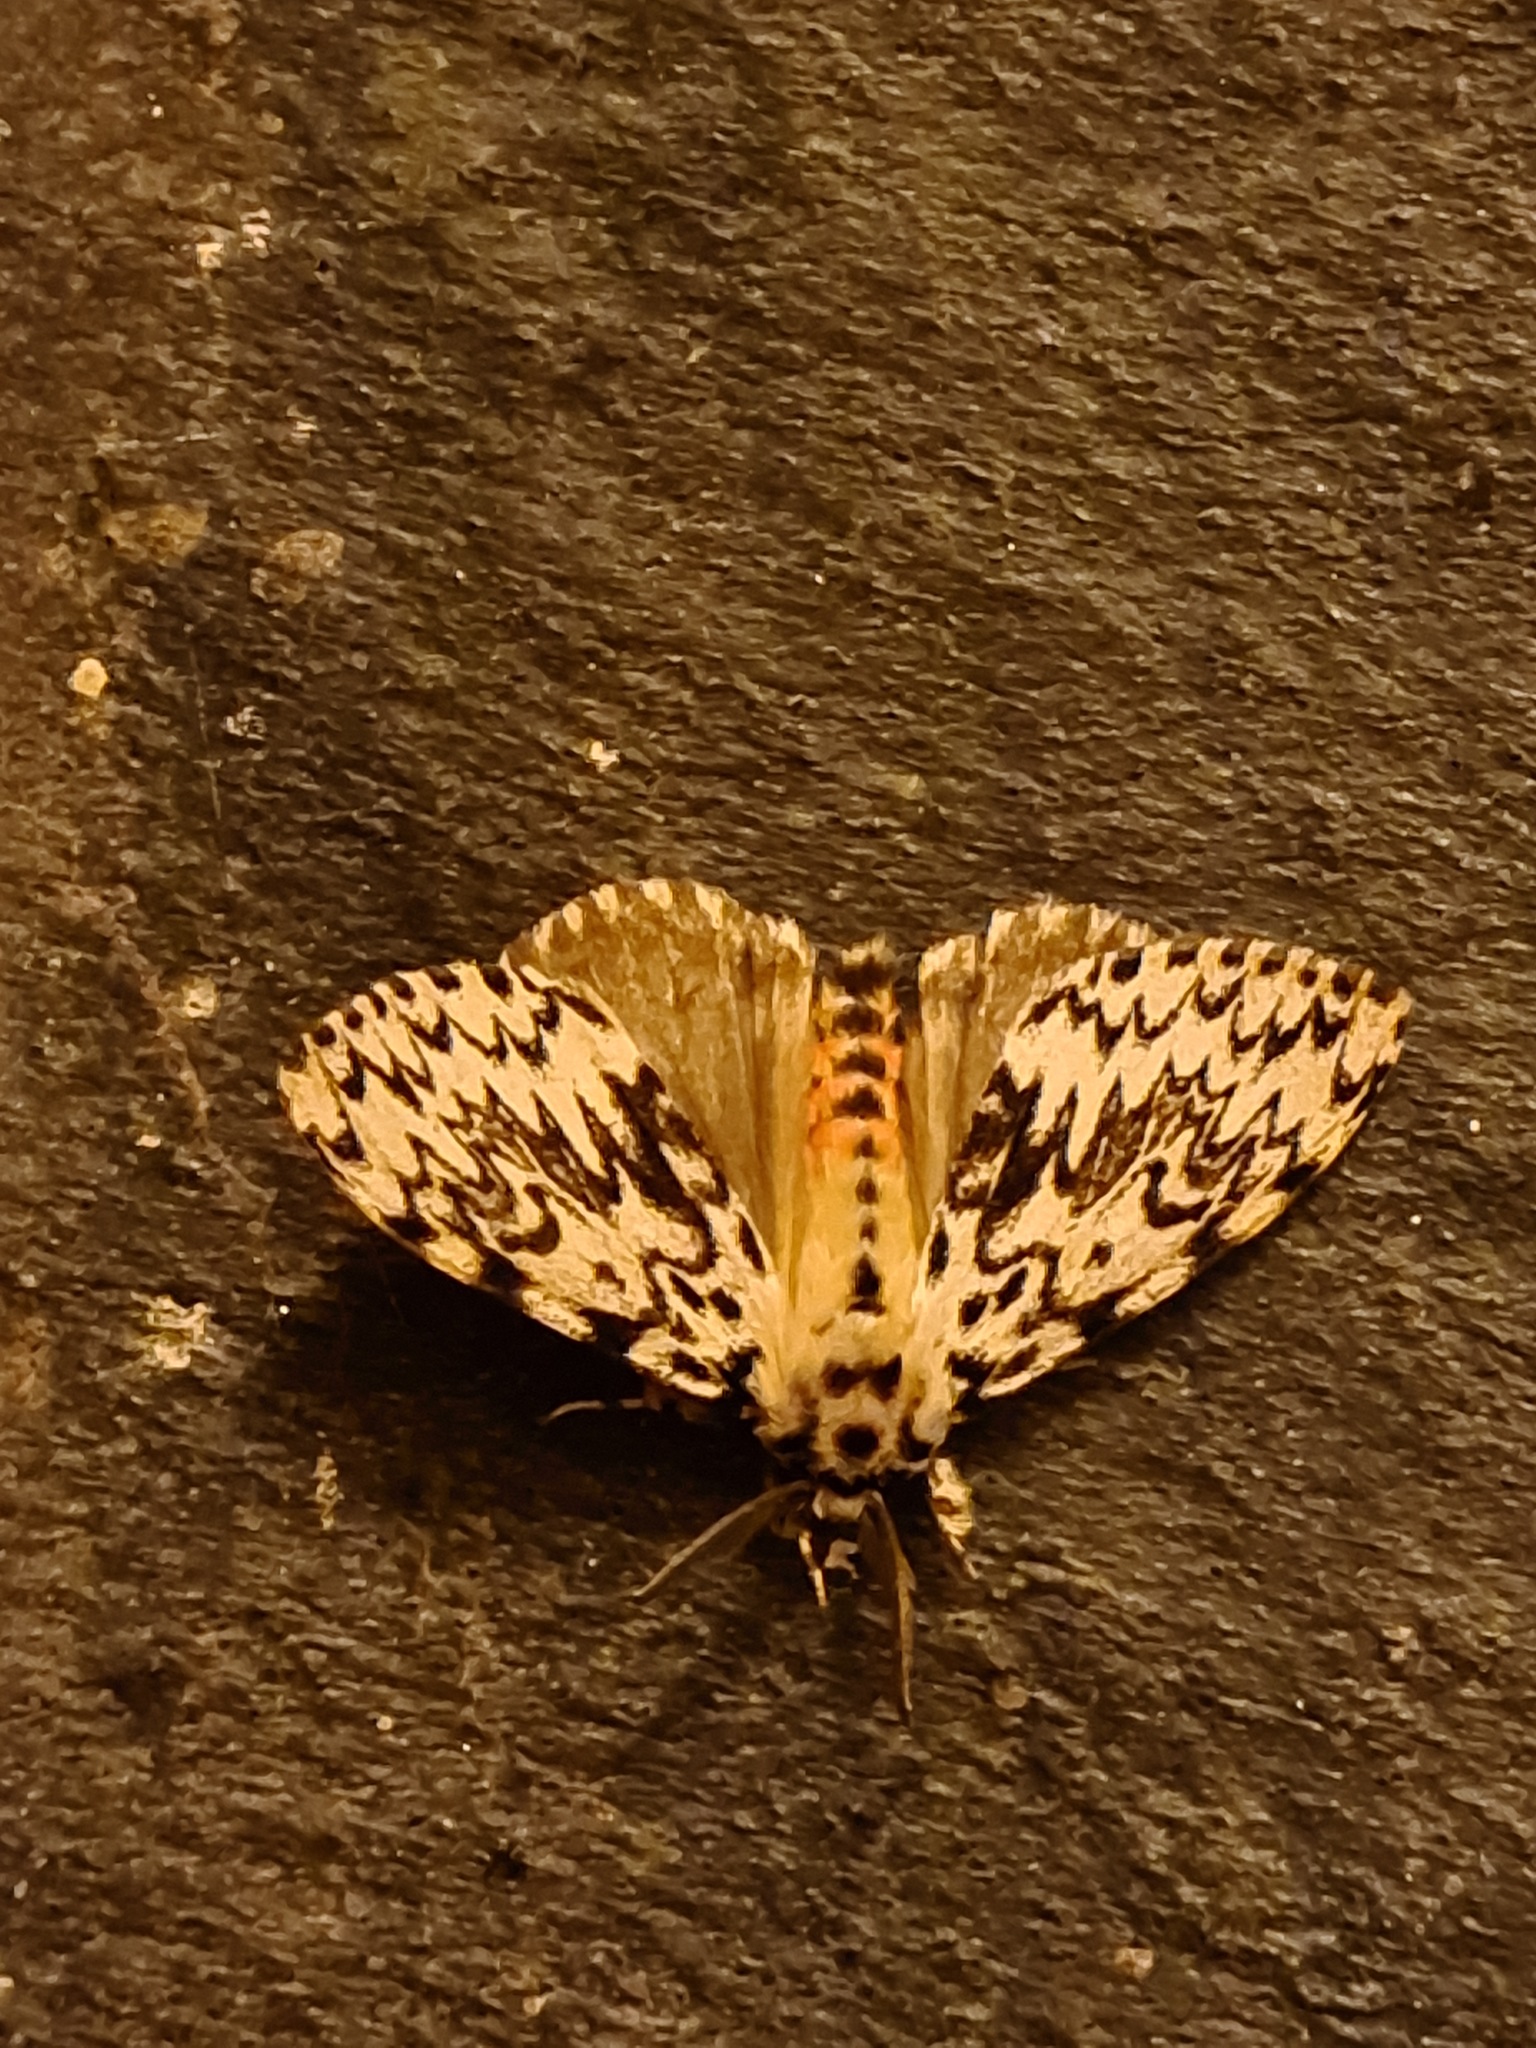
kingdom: Animalia
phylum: Arthropoda
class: Insecta
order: Lepidoptera
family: Erebidae
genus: Lymantria
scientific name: Lymantria monacha
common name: Black arches
